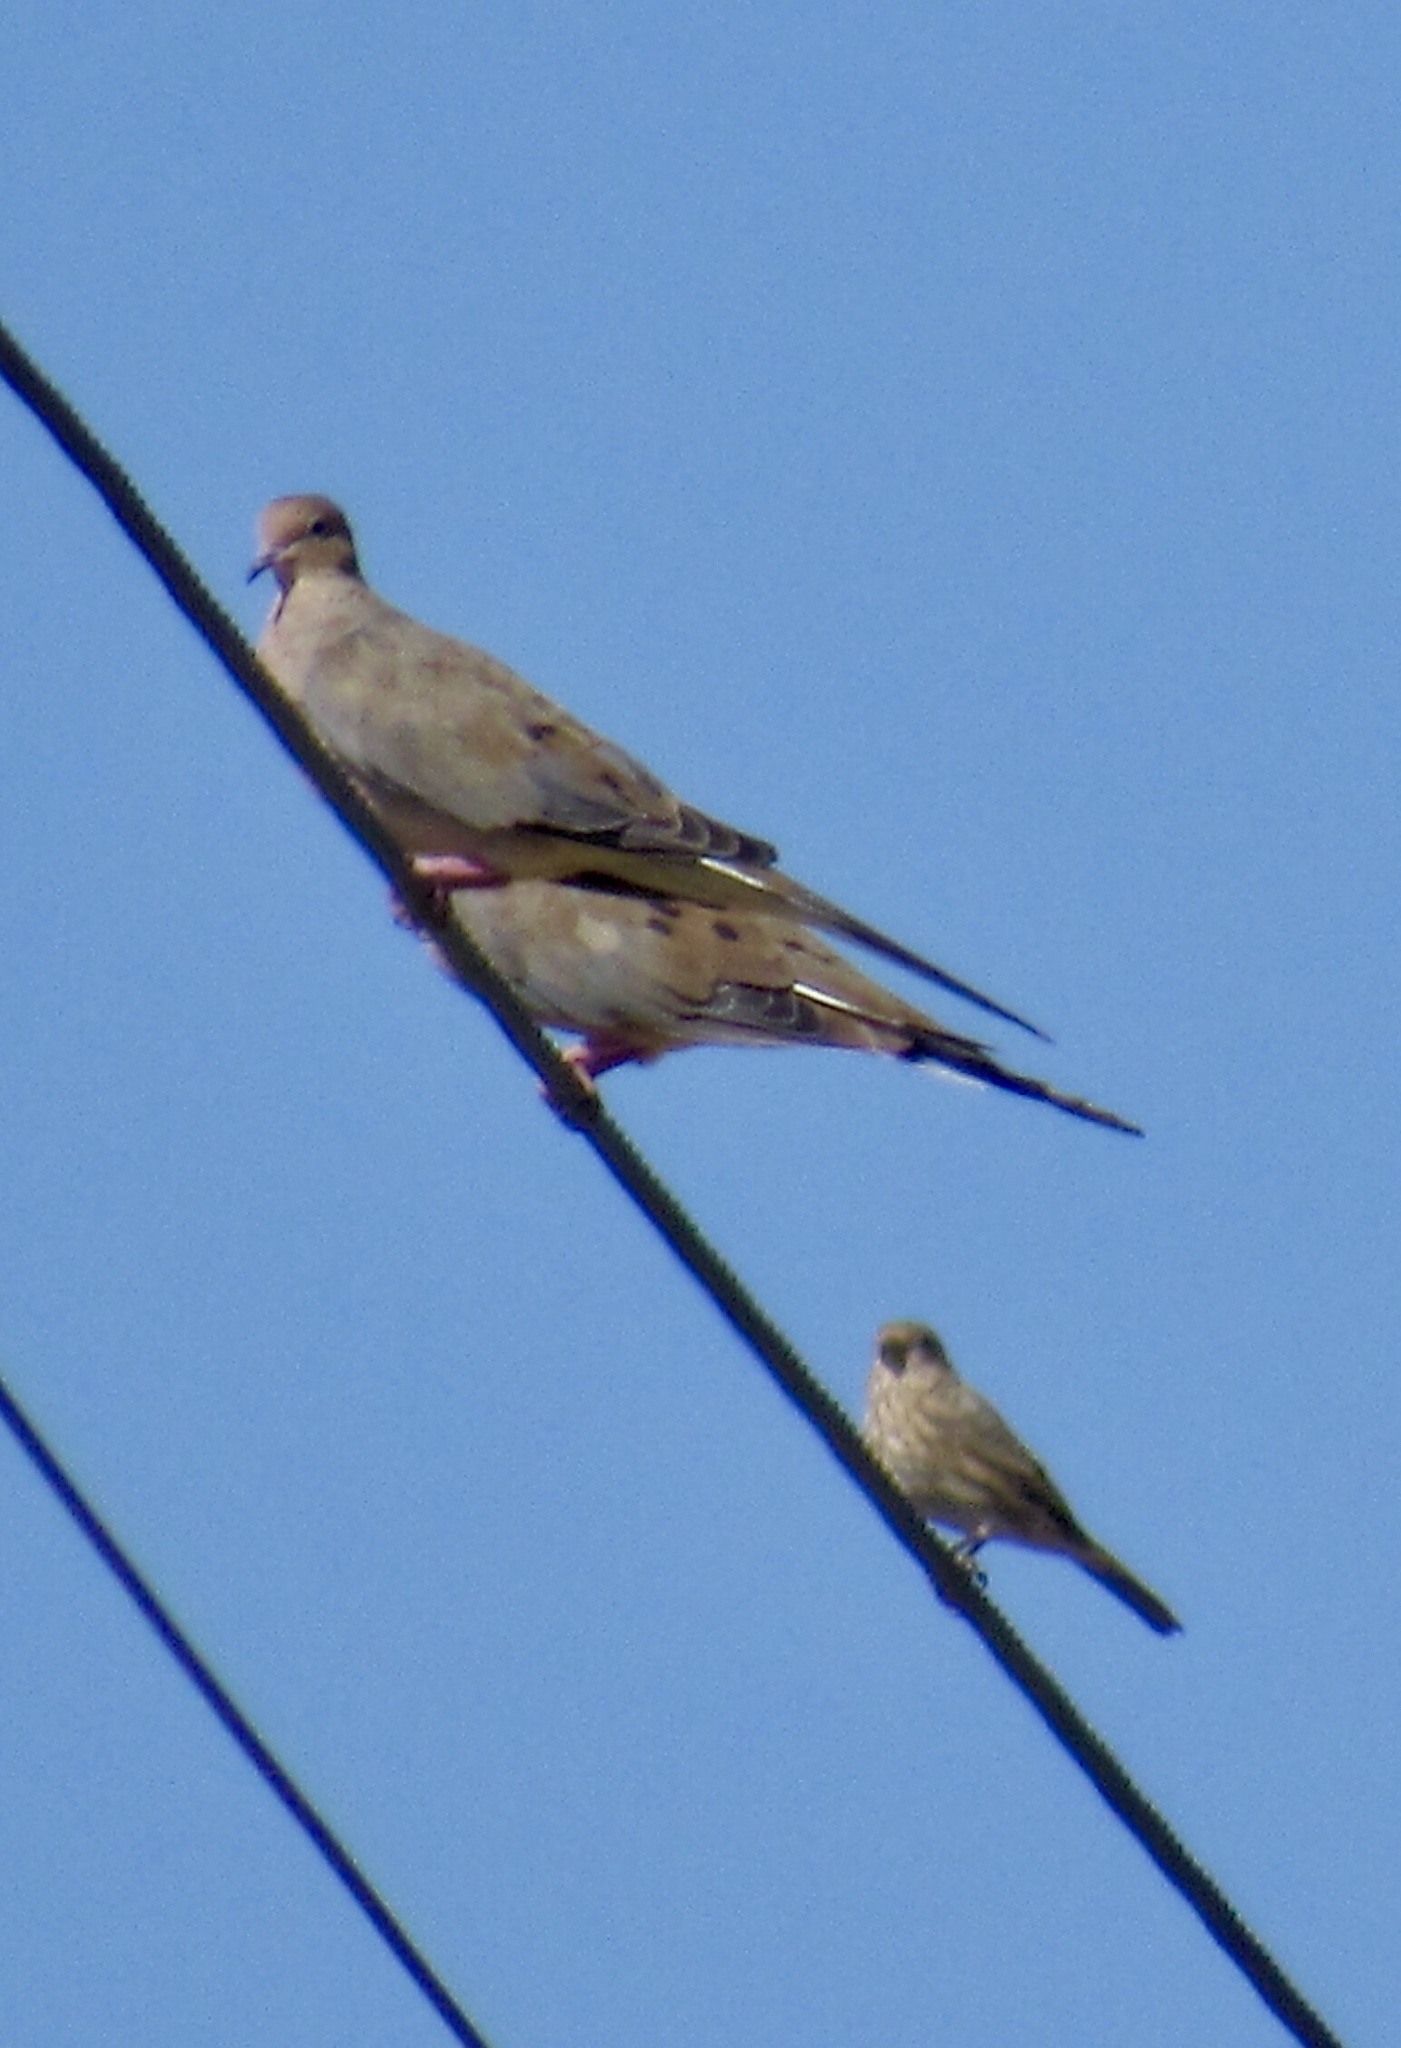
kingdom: Animalia
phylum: Chordata
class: Aves
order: Columbiformes
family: Columbidae
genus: Zenaida
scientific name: Zenaida macroura
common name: Mourning dove
